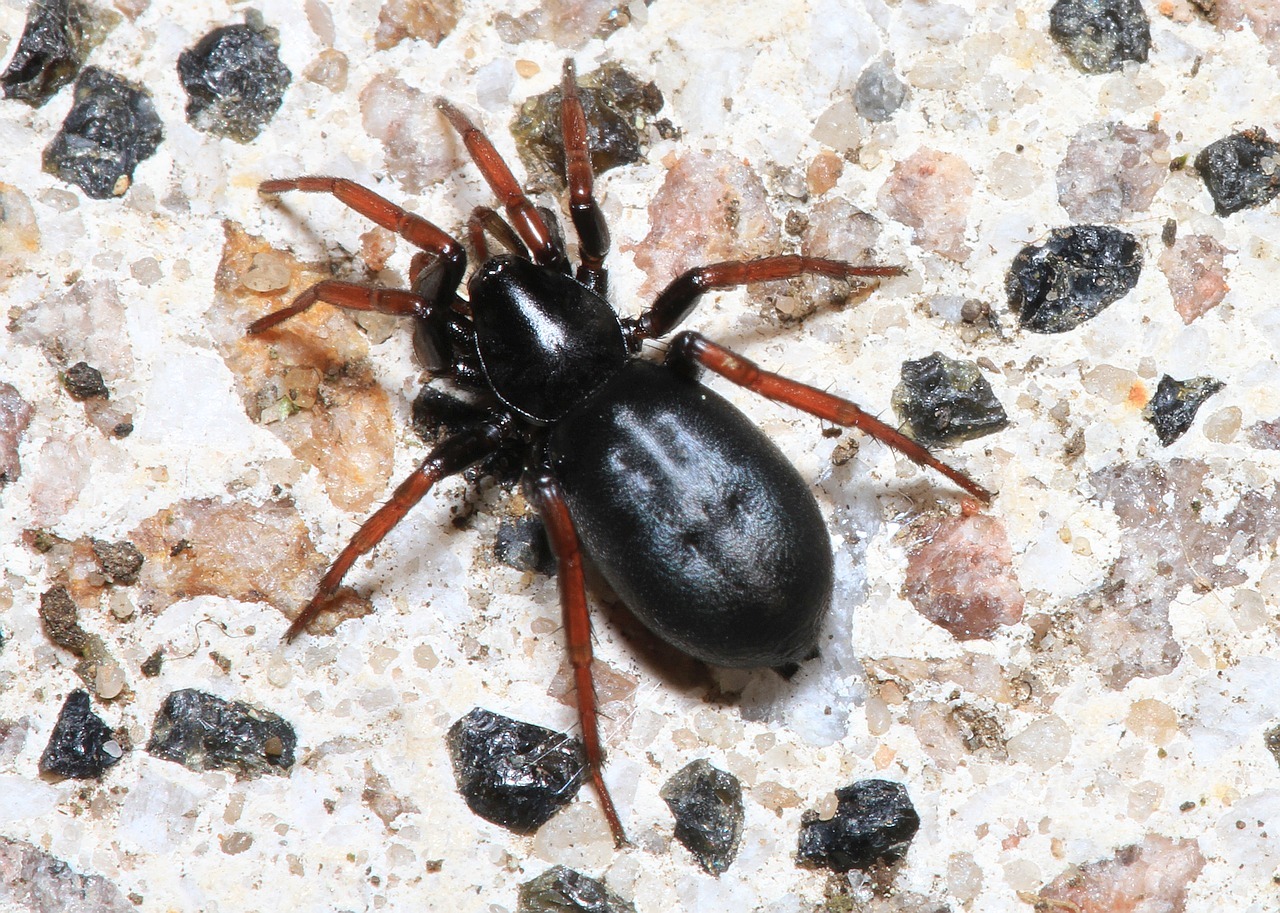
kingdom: Animalia
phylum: Arthropoda
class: Arachnida
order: Araneae
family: Gnaphosidae
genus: Trachyzelotes
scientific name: Trachyzelotes pedestris
